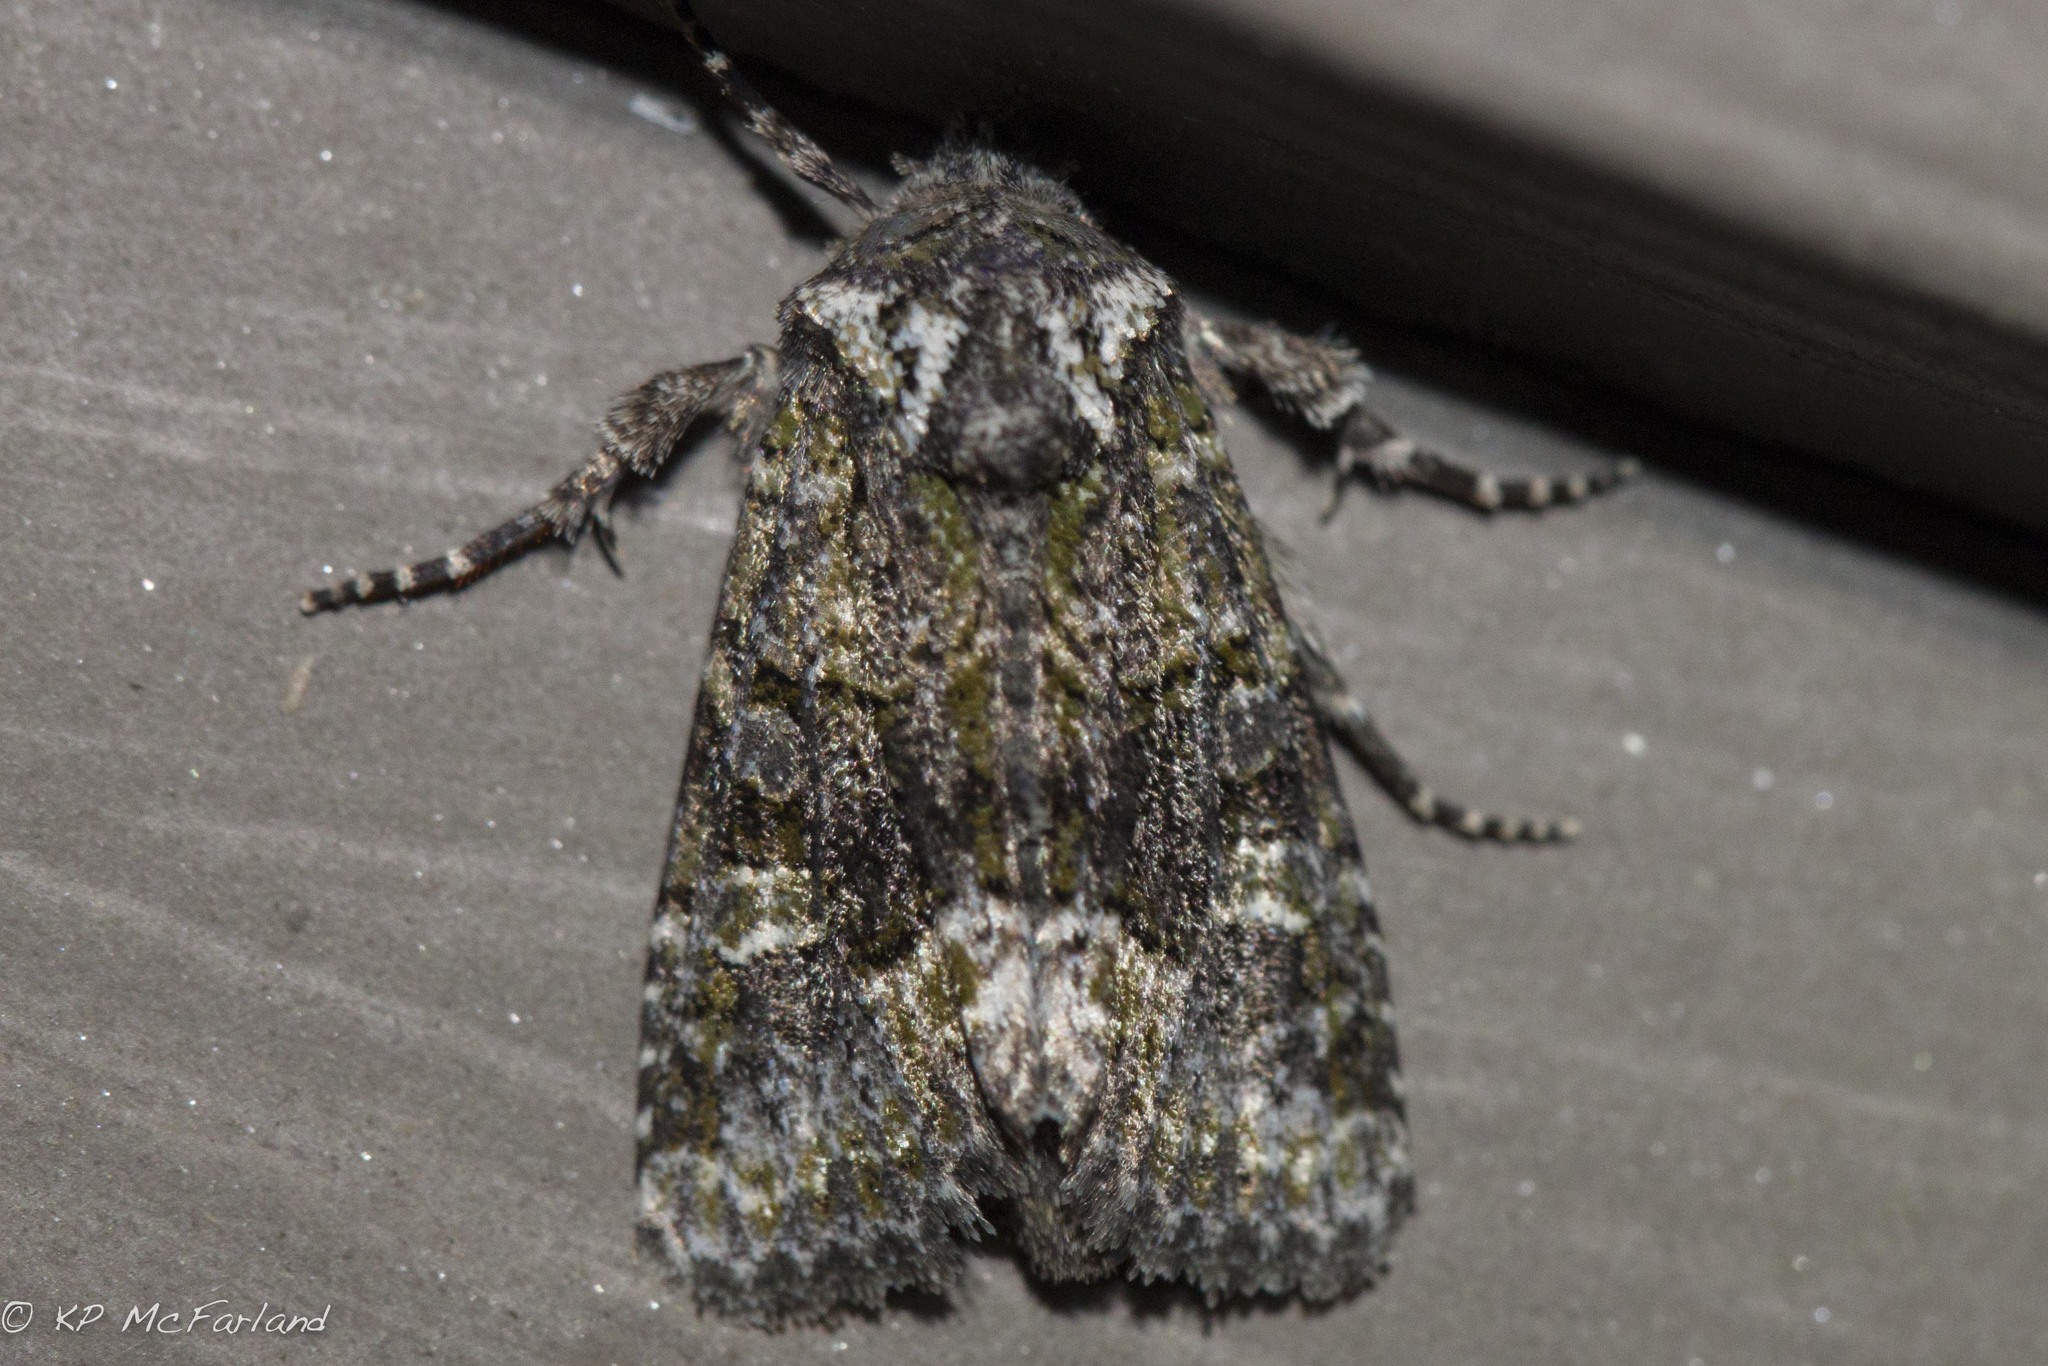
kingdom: Animalia
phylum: Arthropoda
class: Insecta
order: Lepidoptera
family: Noctuidae
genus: Lacinipolia
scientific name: Lacinipolia olivacea
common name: Olive arches moth
